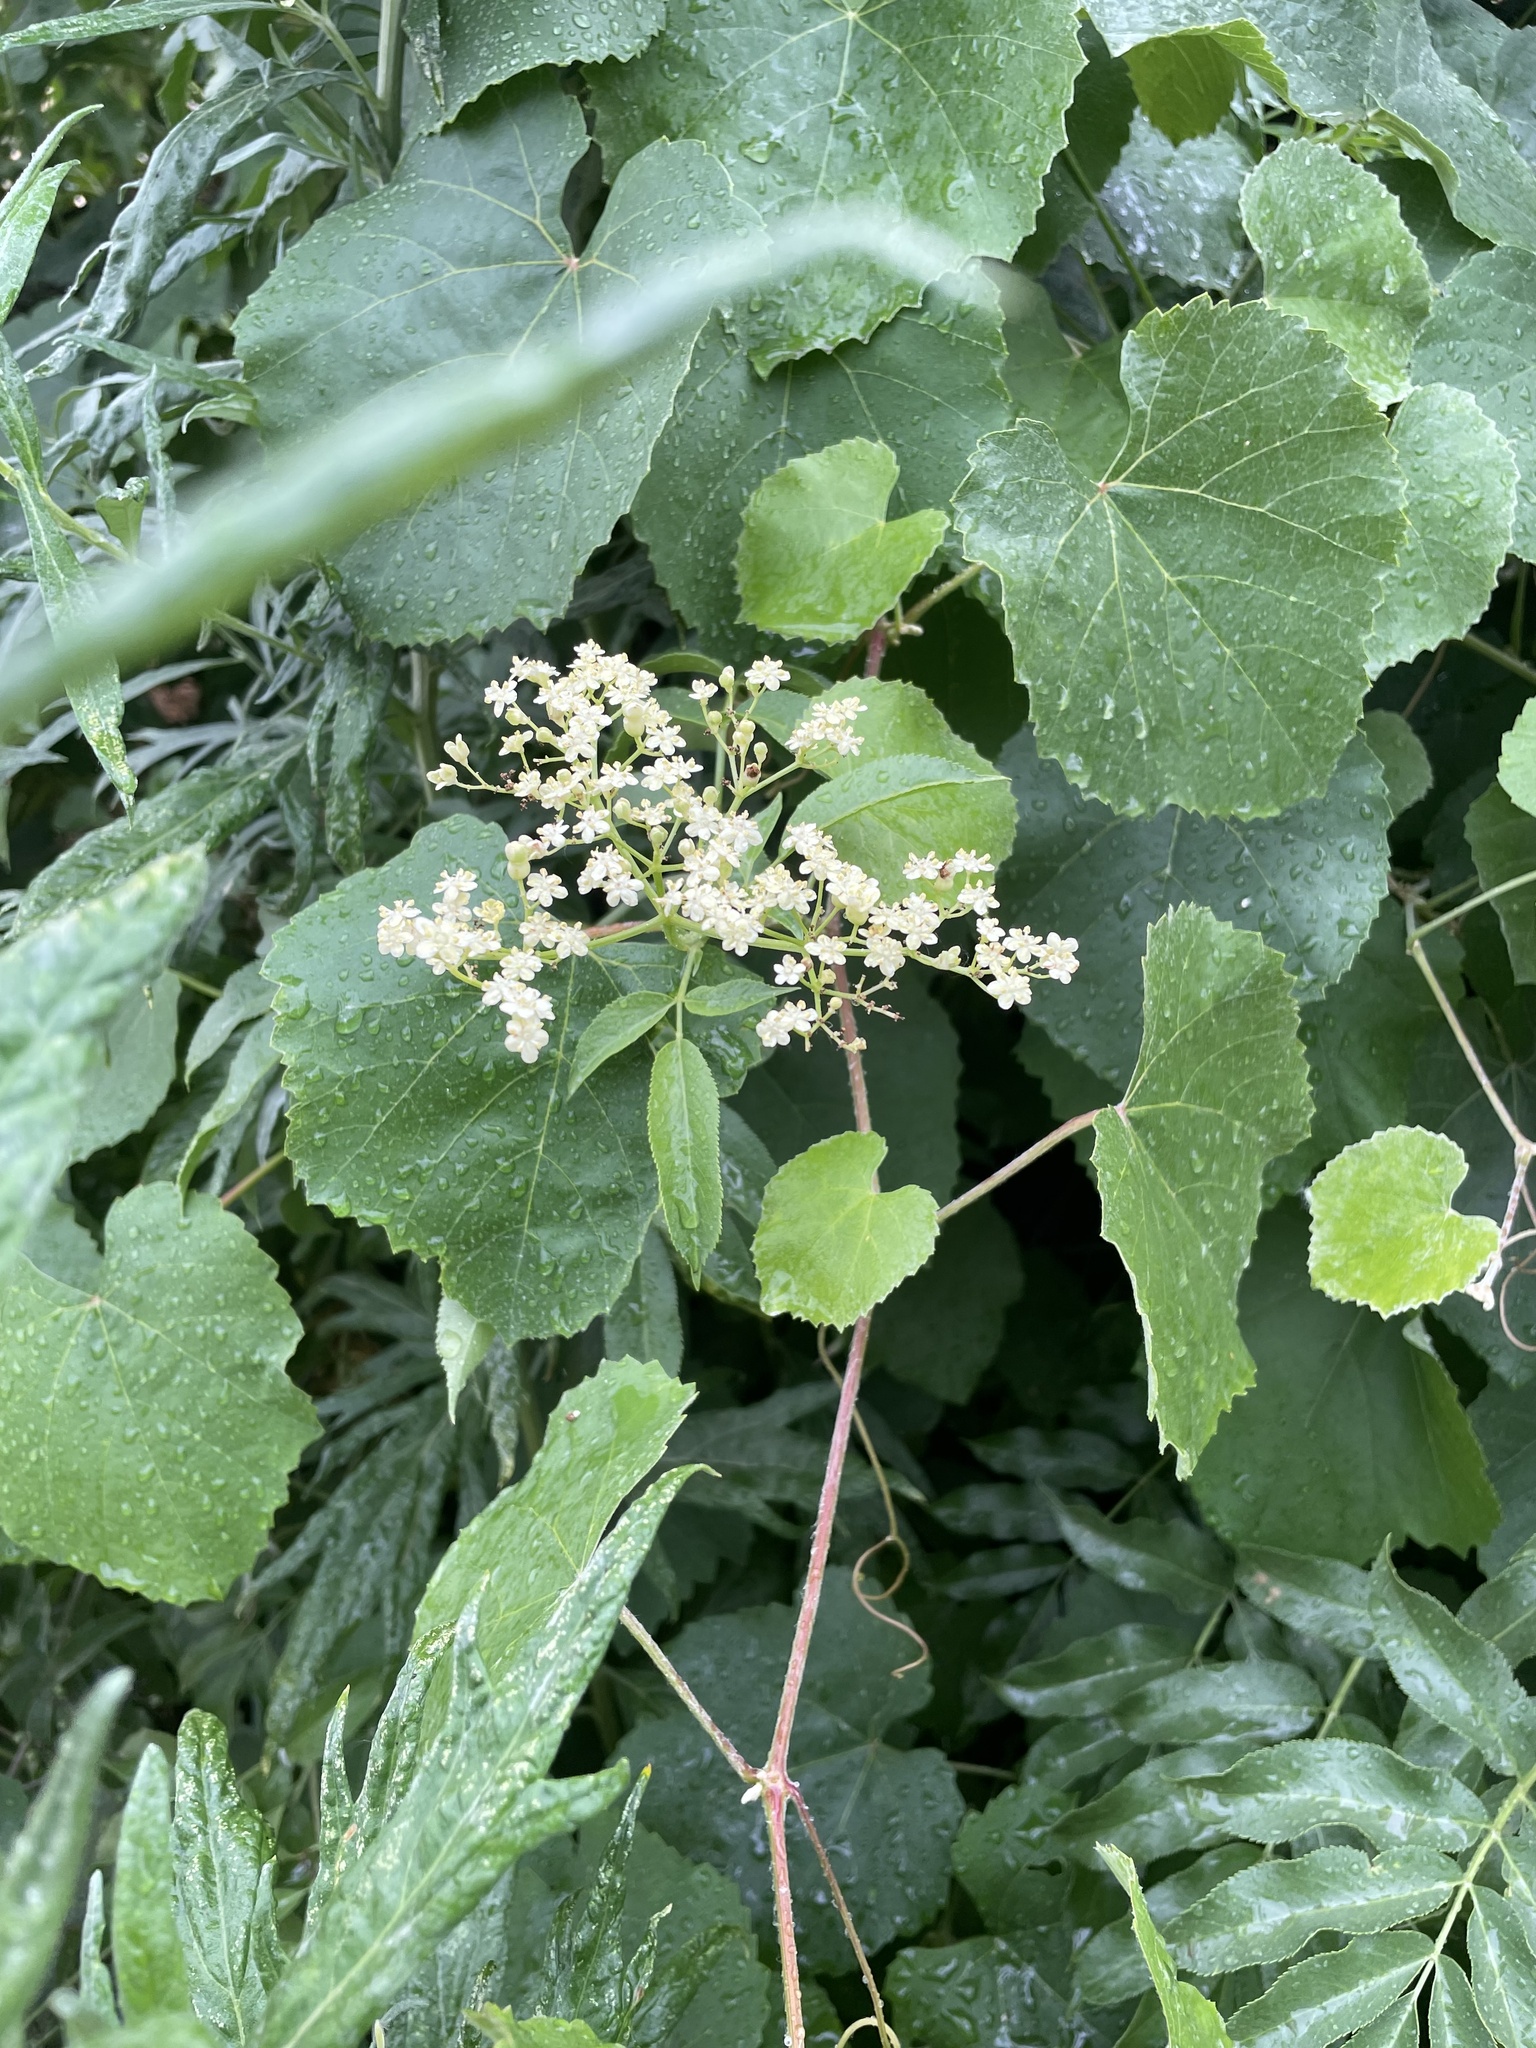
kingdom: Plantae
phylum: Tracheophyta
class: Magnoliopsida
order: Dipsacales
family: Viburnaceae
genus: Sambucus
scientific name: Sambucus cerulea
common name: Blue elder
